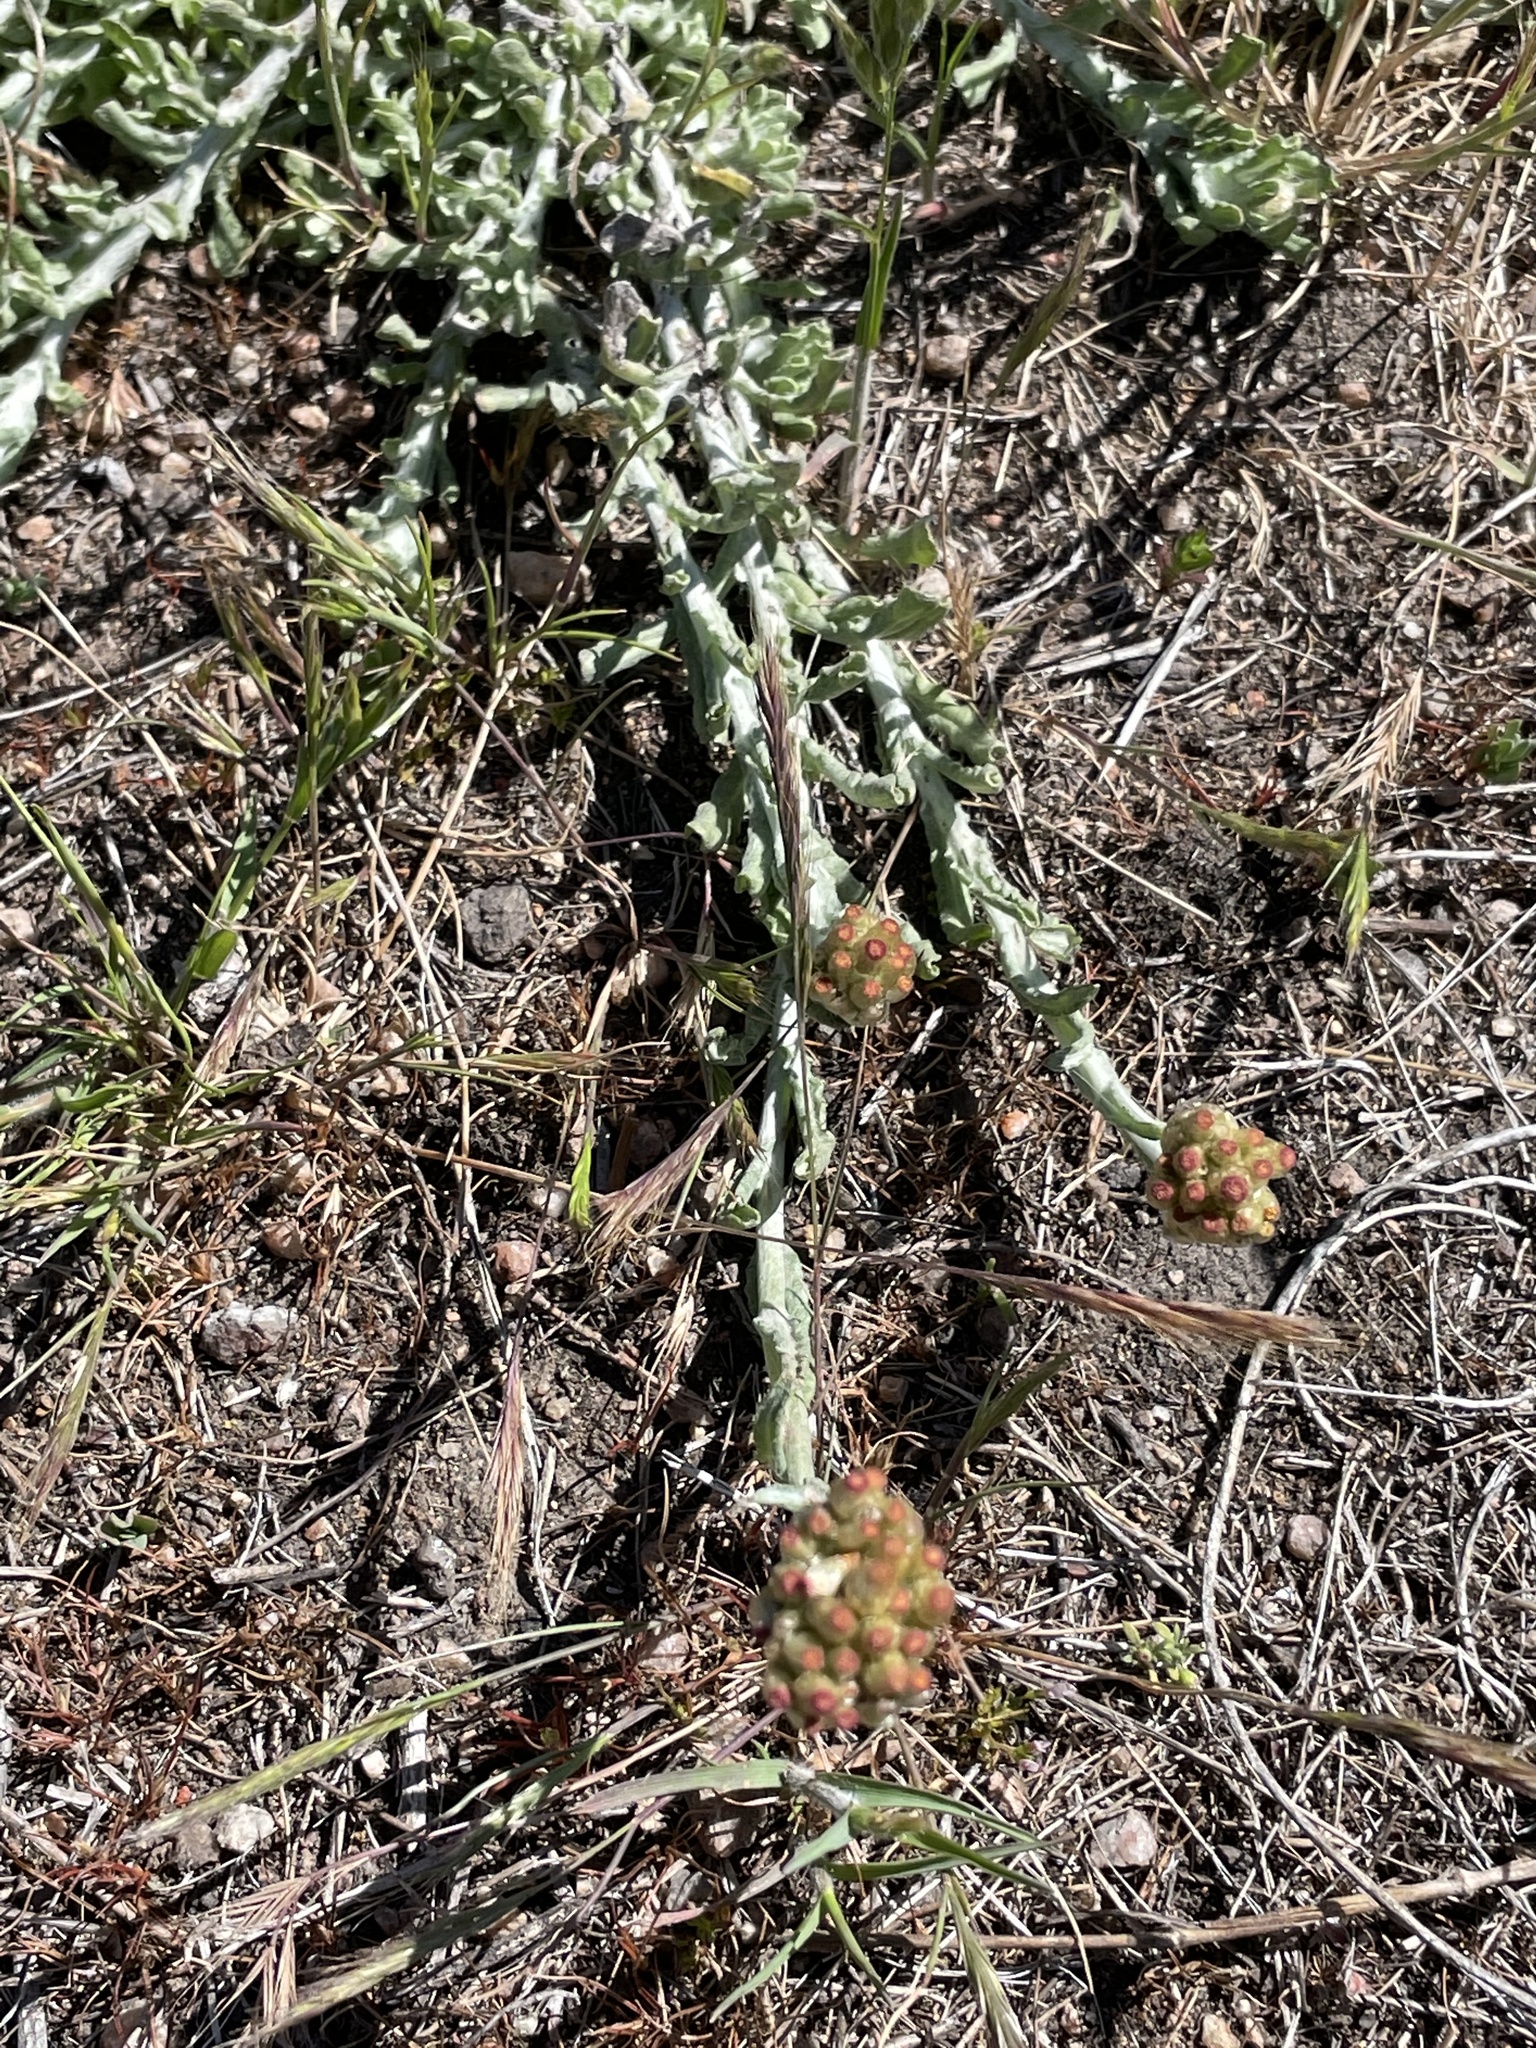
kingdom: Plantae
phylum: Tracheophyta
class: Magnoliopsida
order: Asterales
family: Asteraceae
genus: Helichrysum
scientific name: Helichrysum luteoalbum
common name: Daisy
